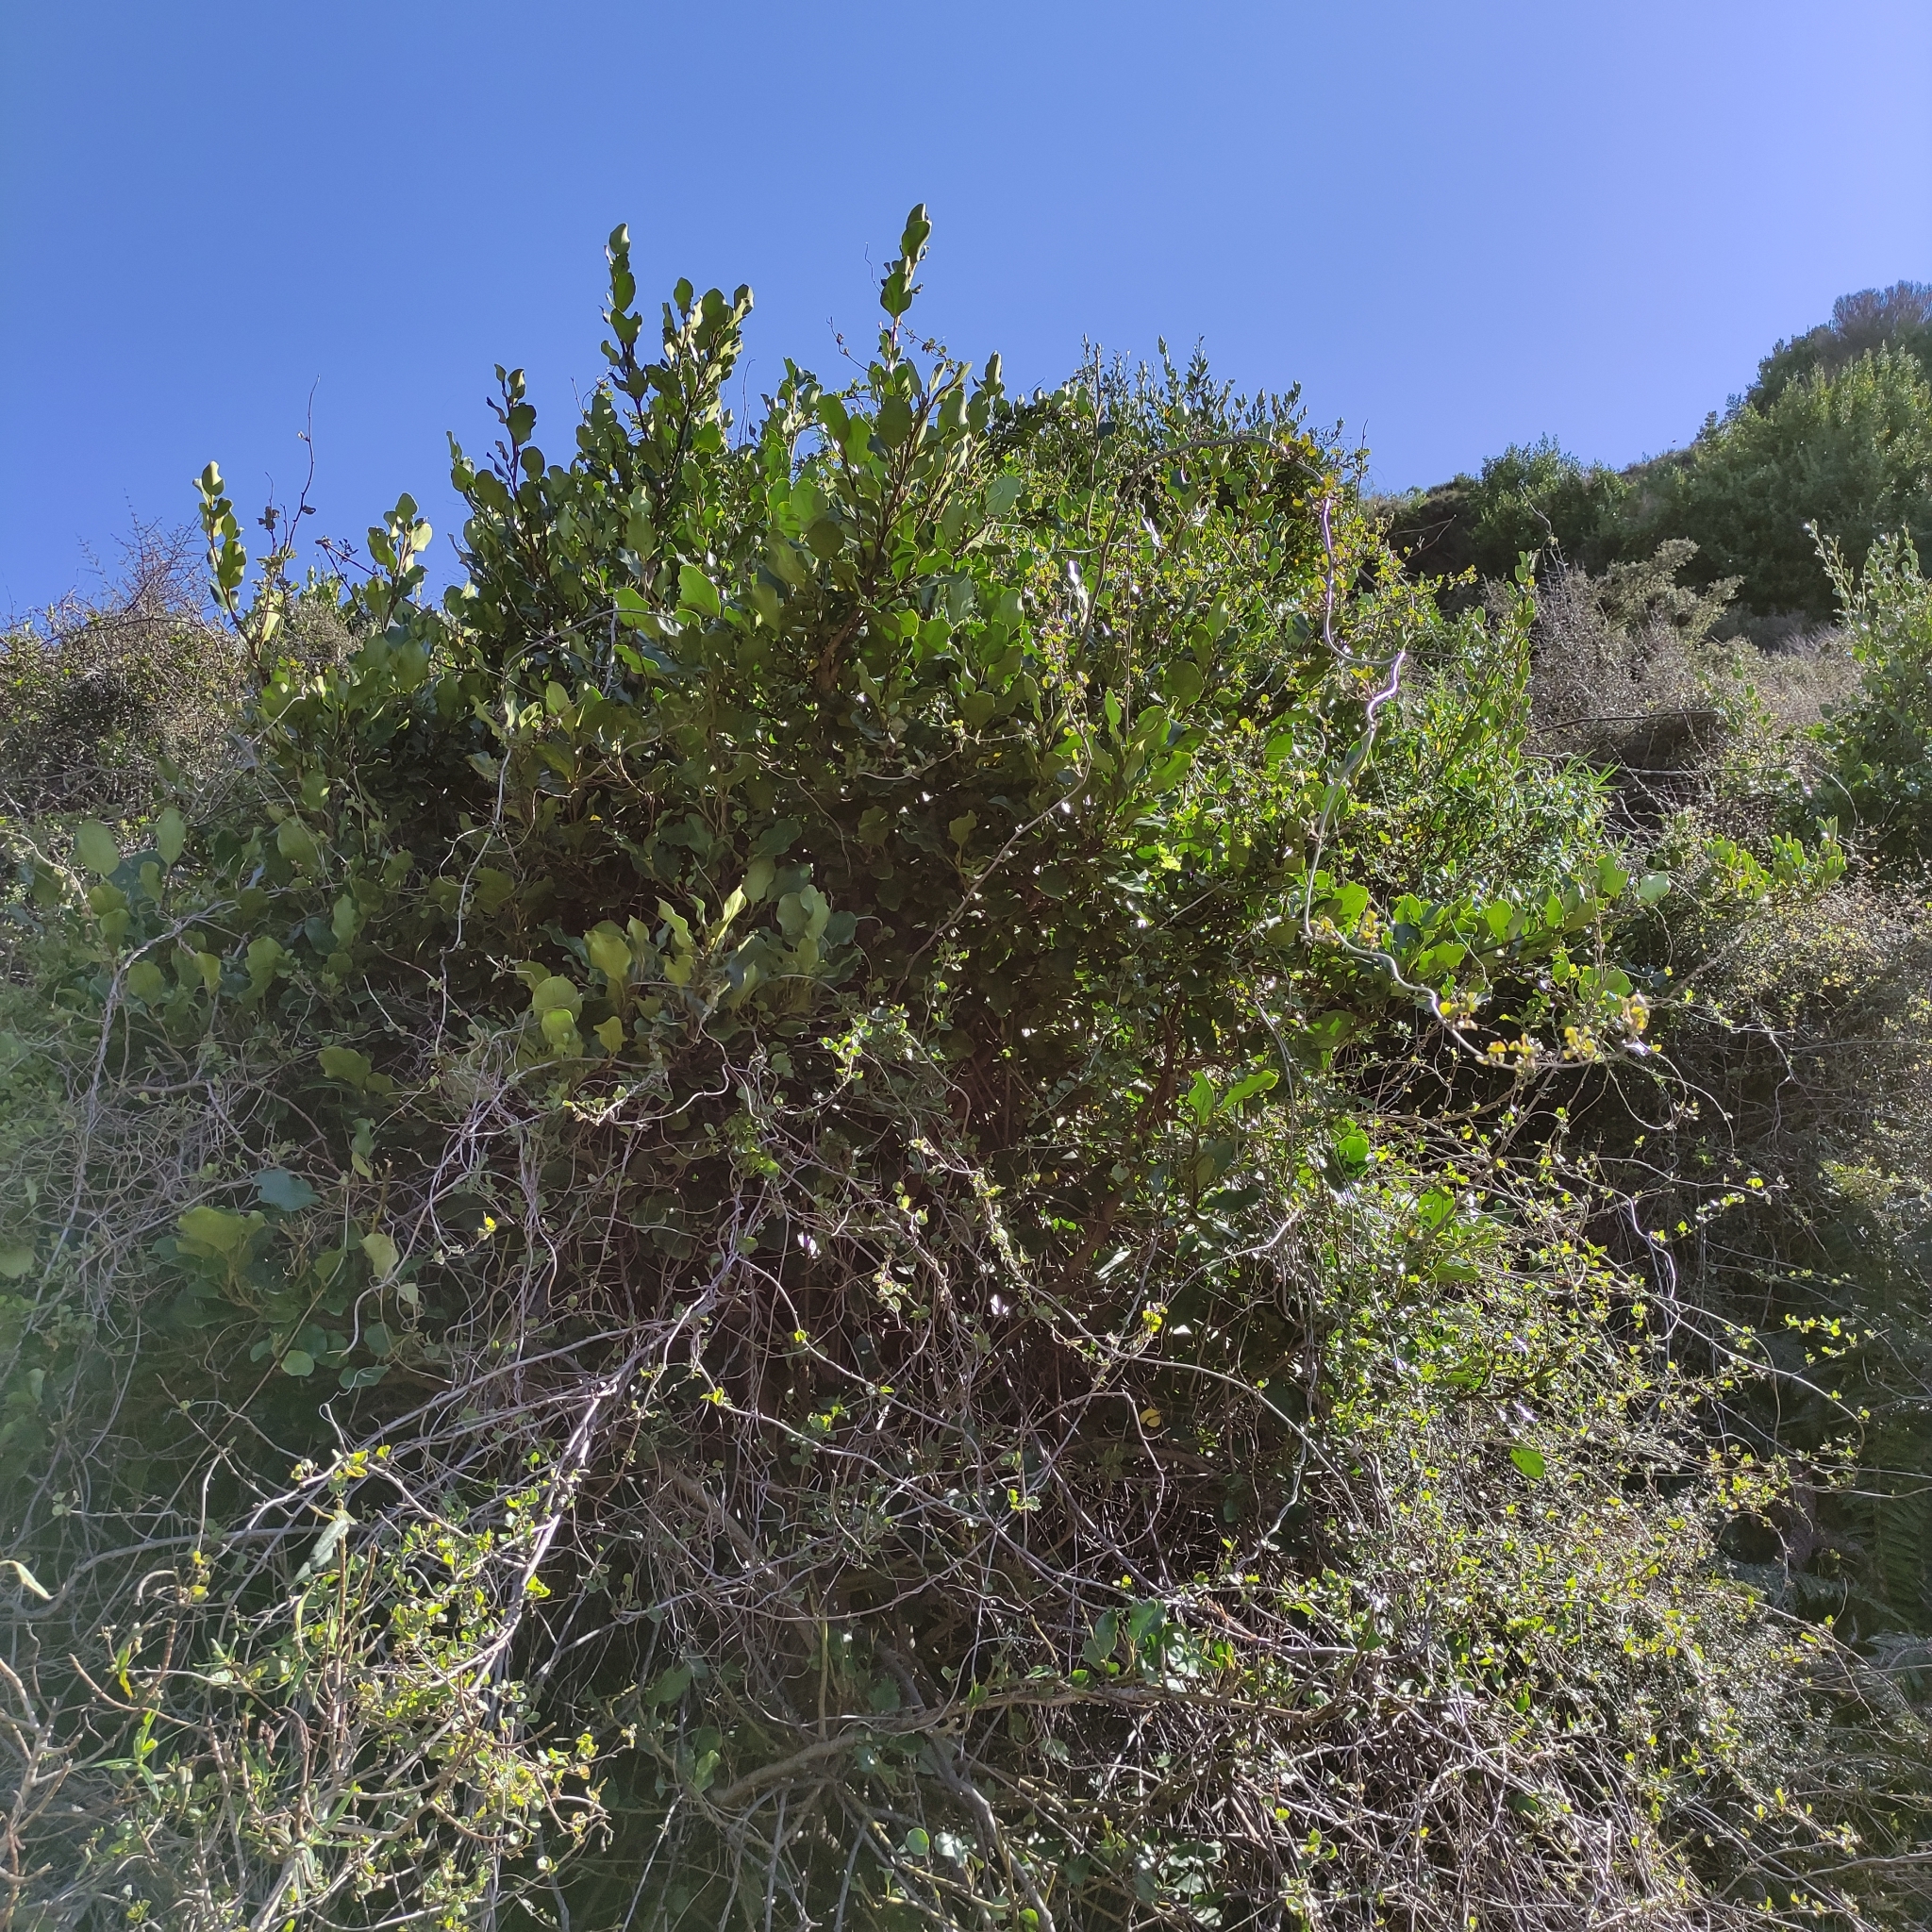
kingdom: Plantae
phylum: Tracheophyta
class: Magnoliopsida
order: Apiales
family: Griseliniaceae
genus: Griselinia
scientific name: Griselinia littoralis
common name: New zealand broadleaf
